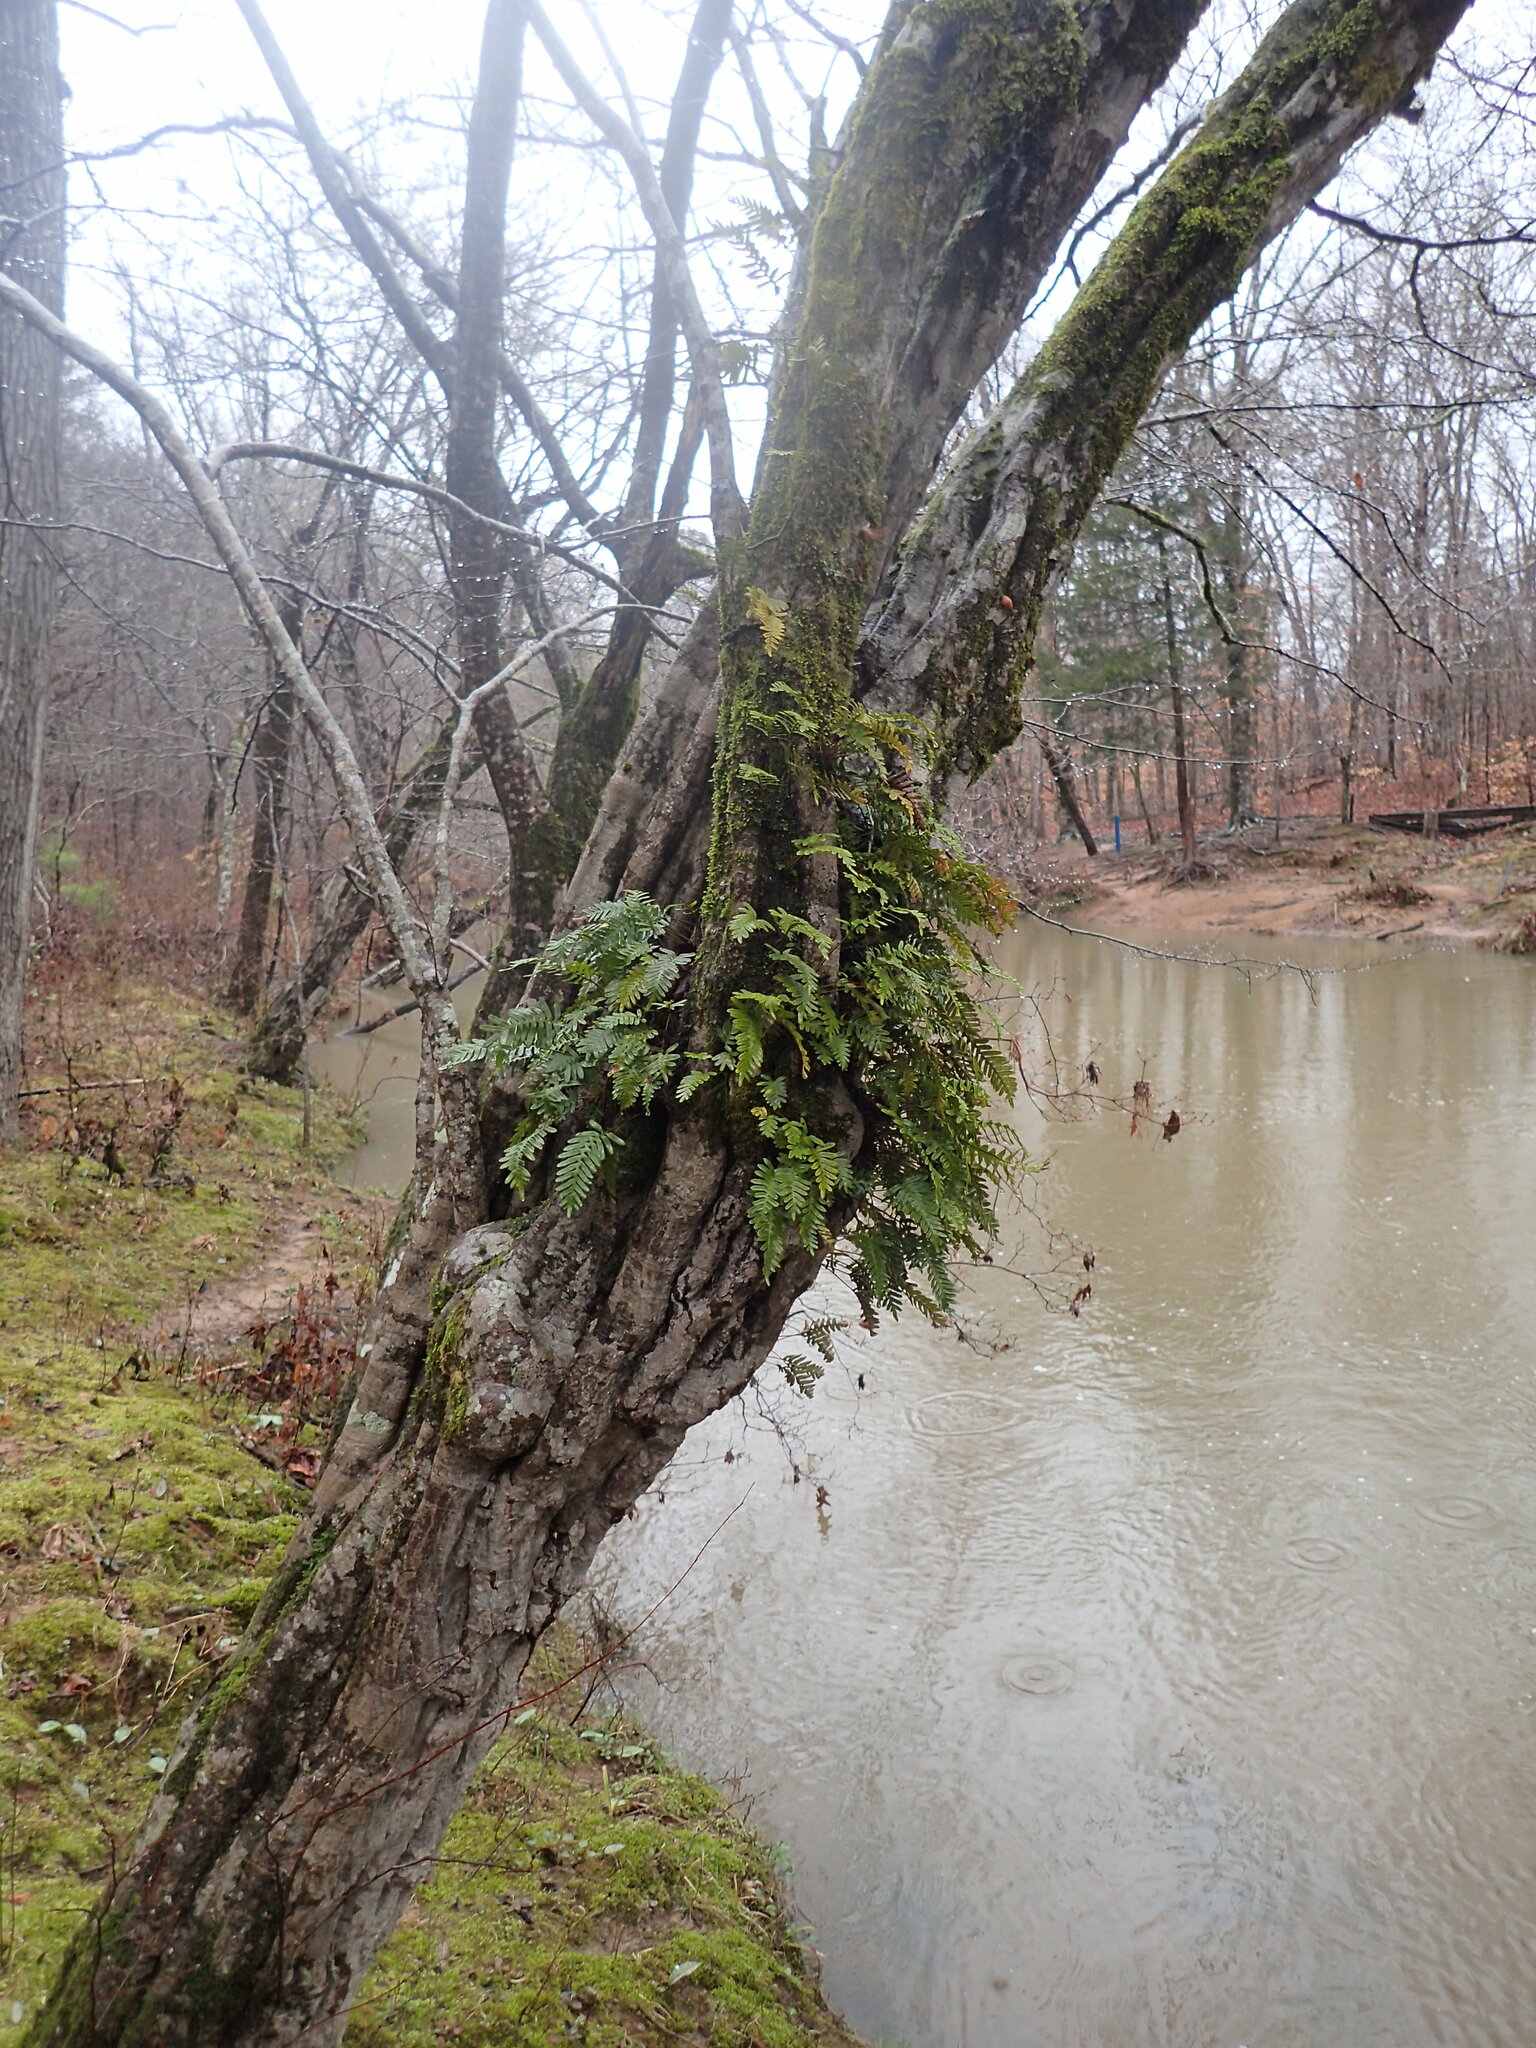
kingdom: Plantae
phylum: Tracheophyta
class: Polypodiopsida
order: Polypodiales
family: Polypodiaceae
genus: Pleopeltis
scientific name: Pleopeltis michauxiana
